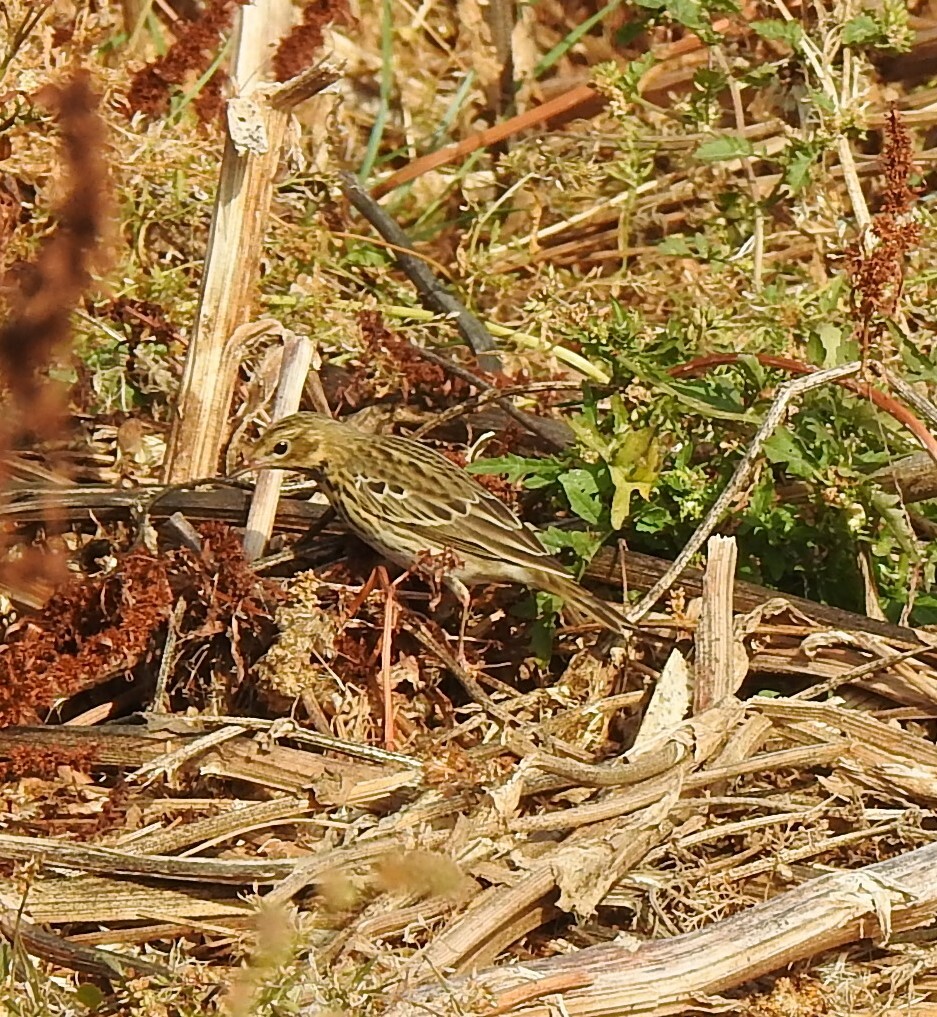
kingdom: Animalia
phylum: Chordata
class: Aves
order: Passeriformes
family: Motacillidae
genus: Anthus
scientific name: Anthus trivialis
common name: Tree pipit
